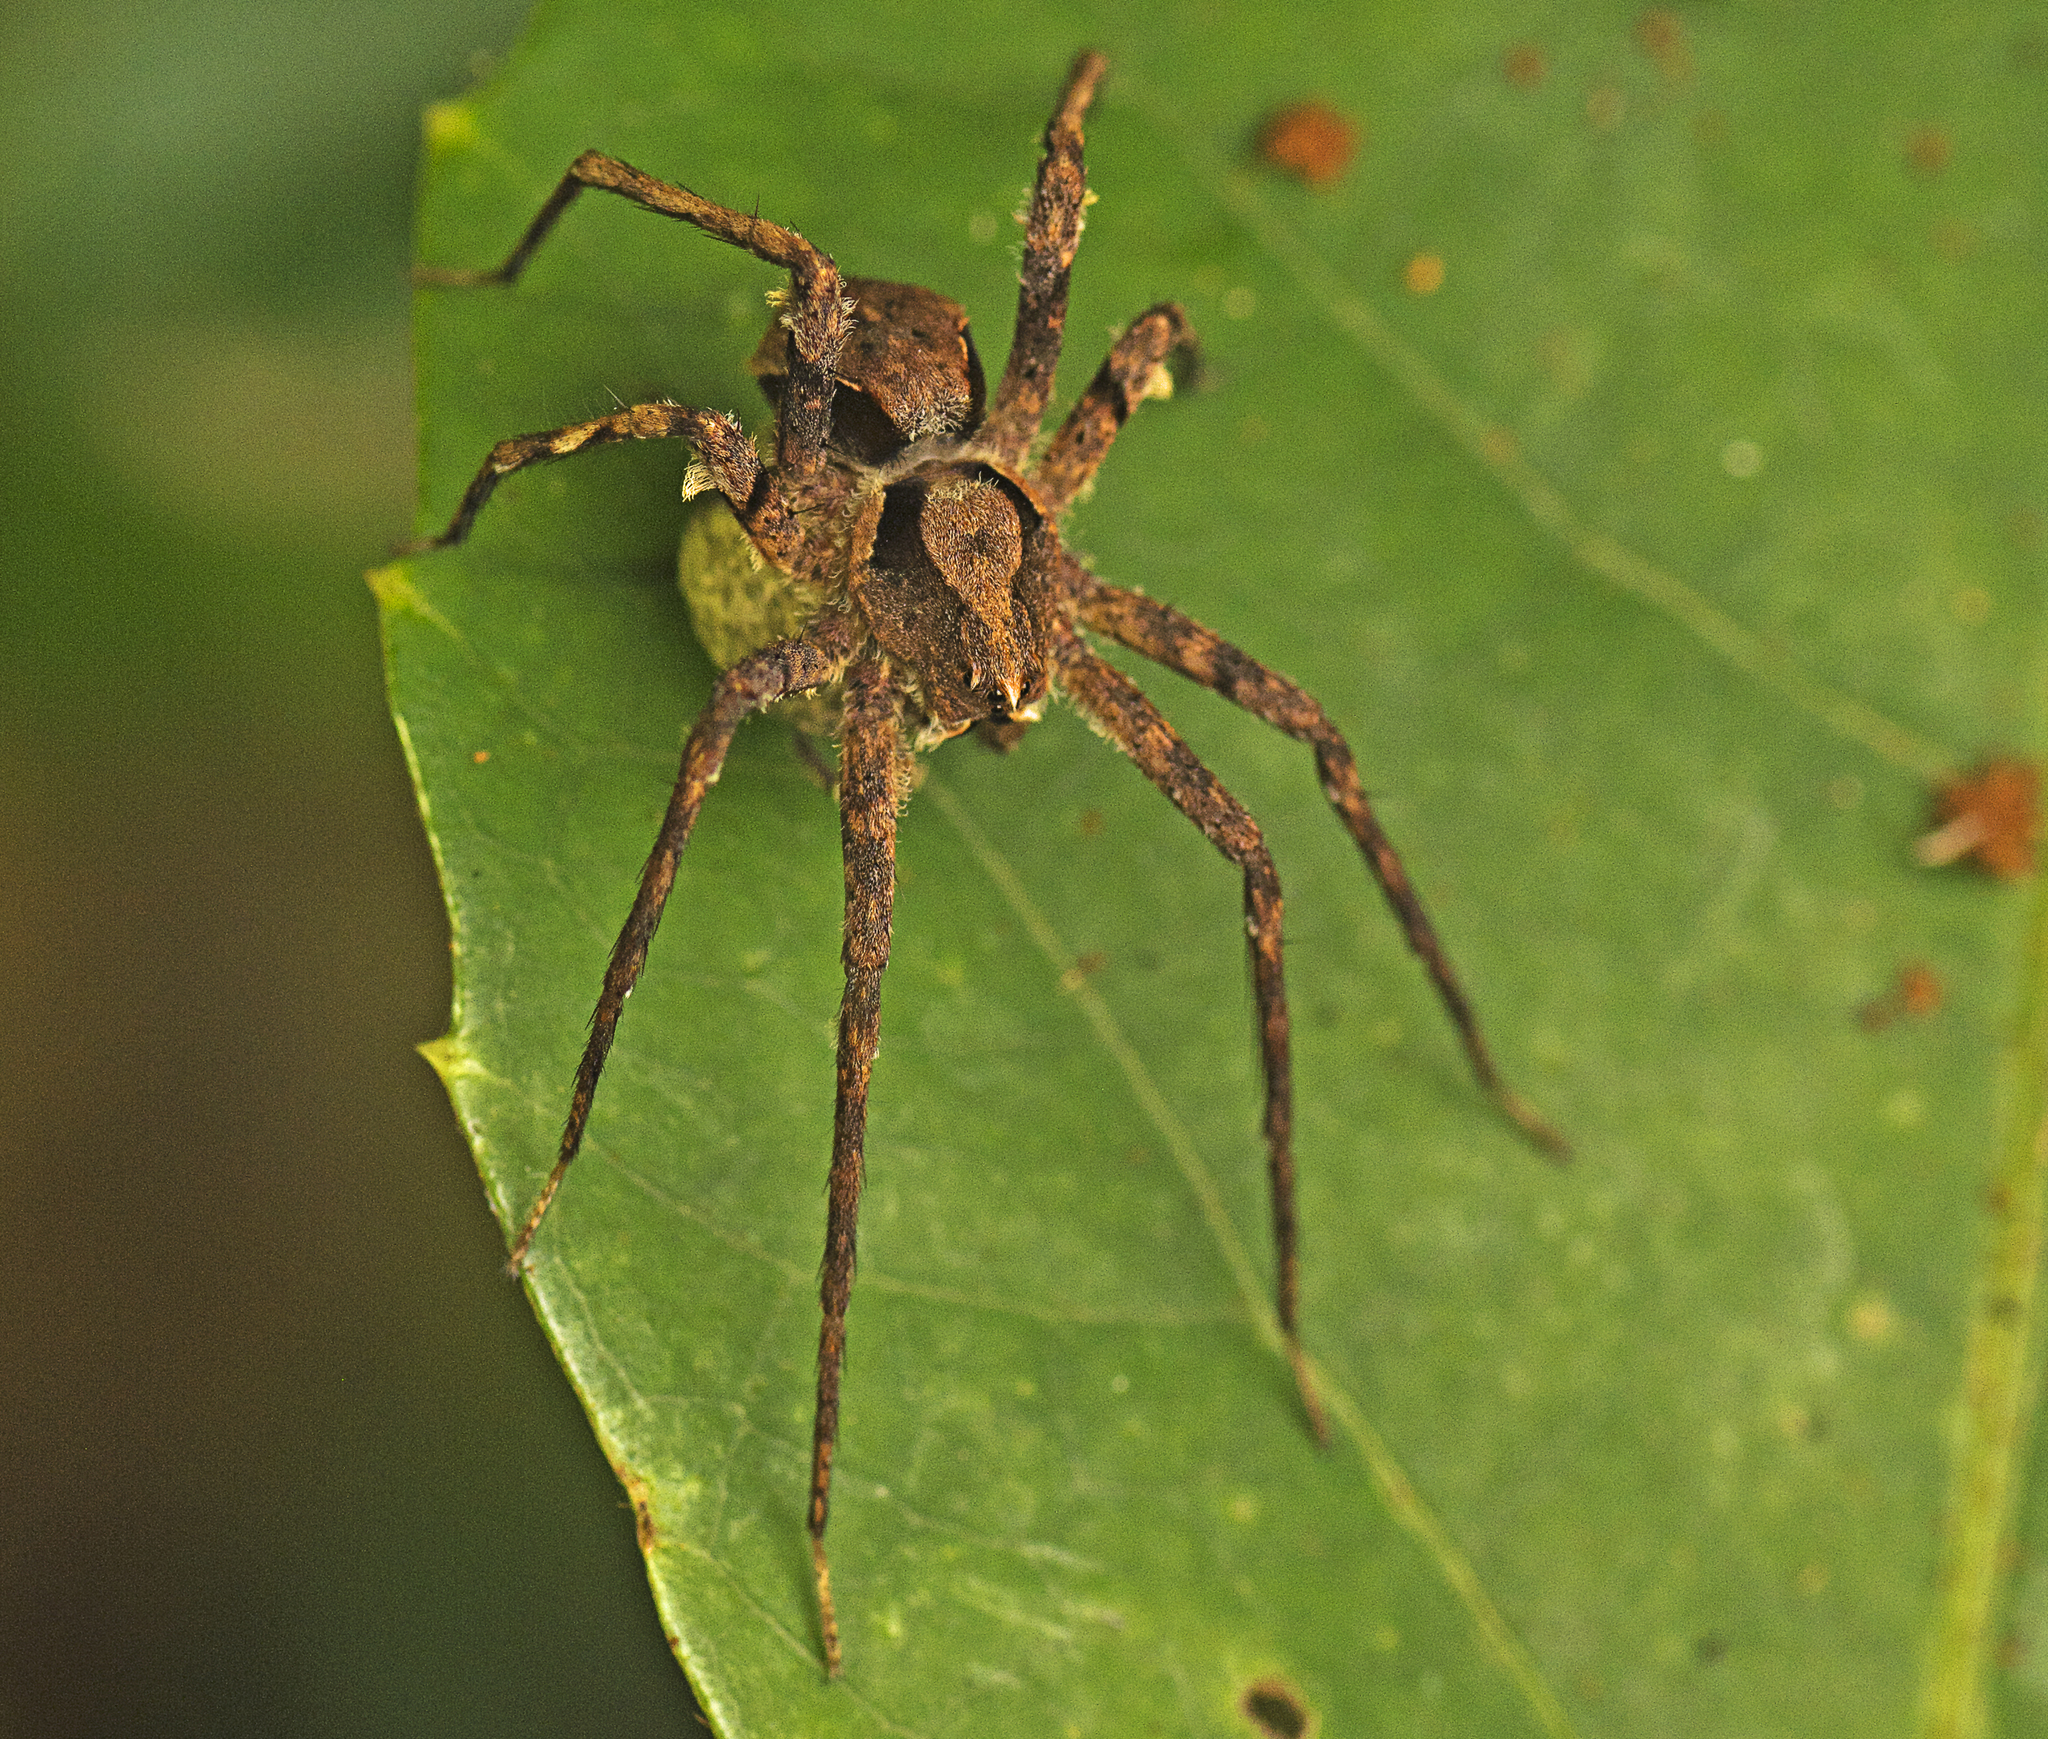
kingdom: Animalia
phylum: Arthropoda
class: Arachnida
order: Araneae
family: Pisauridae
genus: Ornodolomedes
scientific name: Ornodolomedes benrevelli
